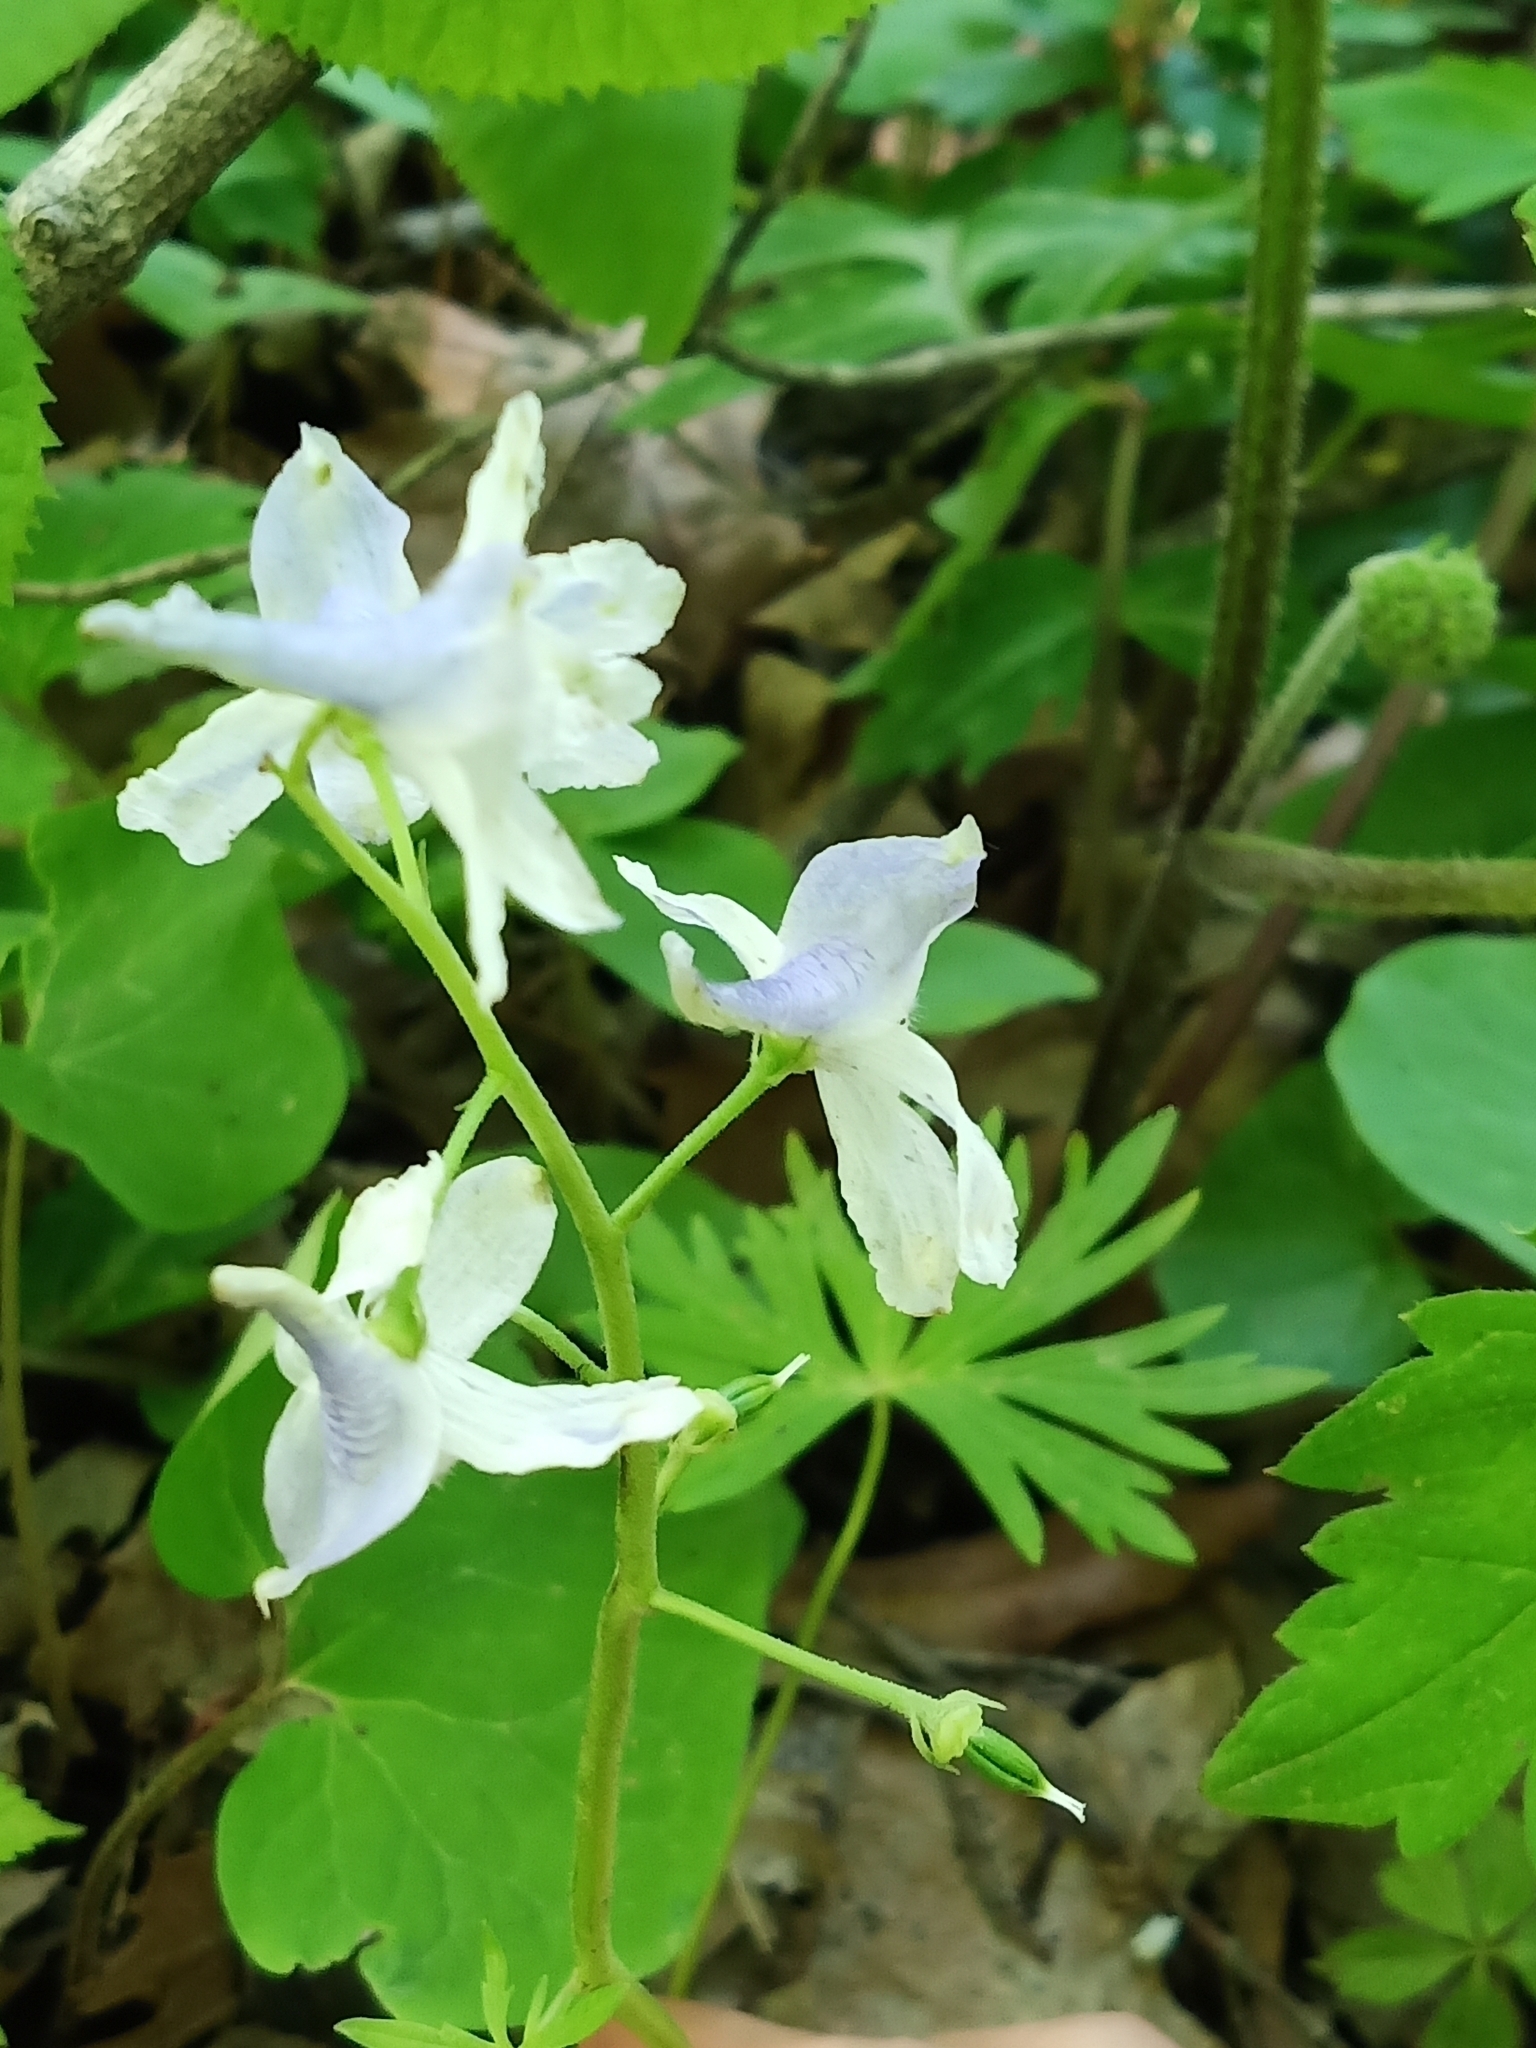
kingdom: Plantae
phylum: Tracheophyta
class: Magnoliopsida
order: Ranunculales
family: Ranunculaceae
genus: Delphinium
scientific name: Delphinium tricorne
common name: Dwarf larkspur
